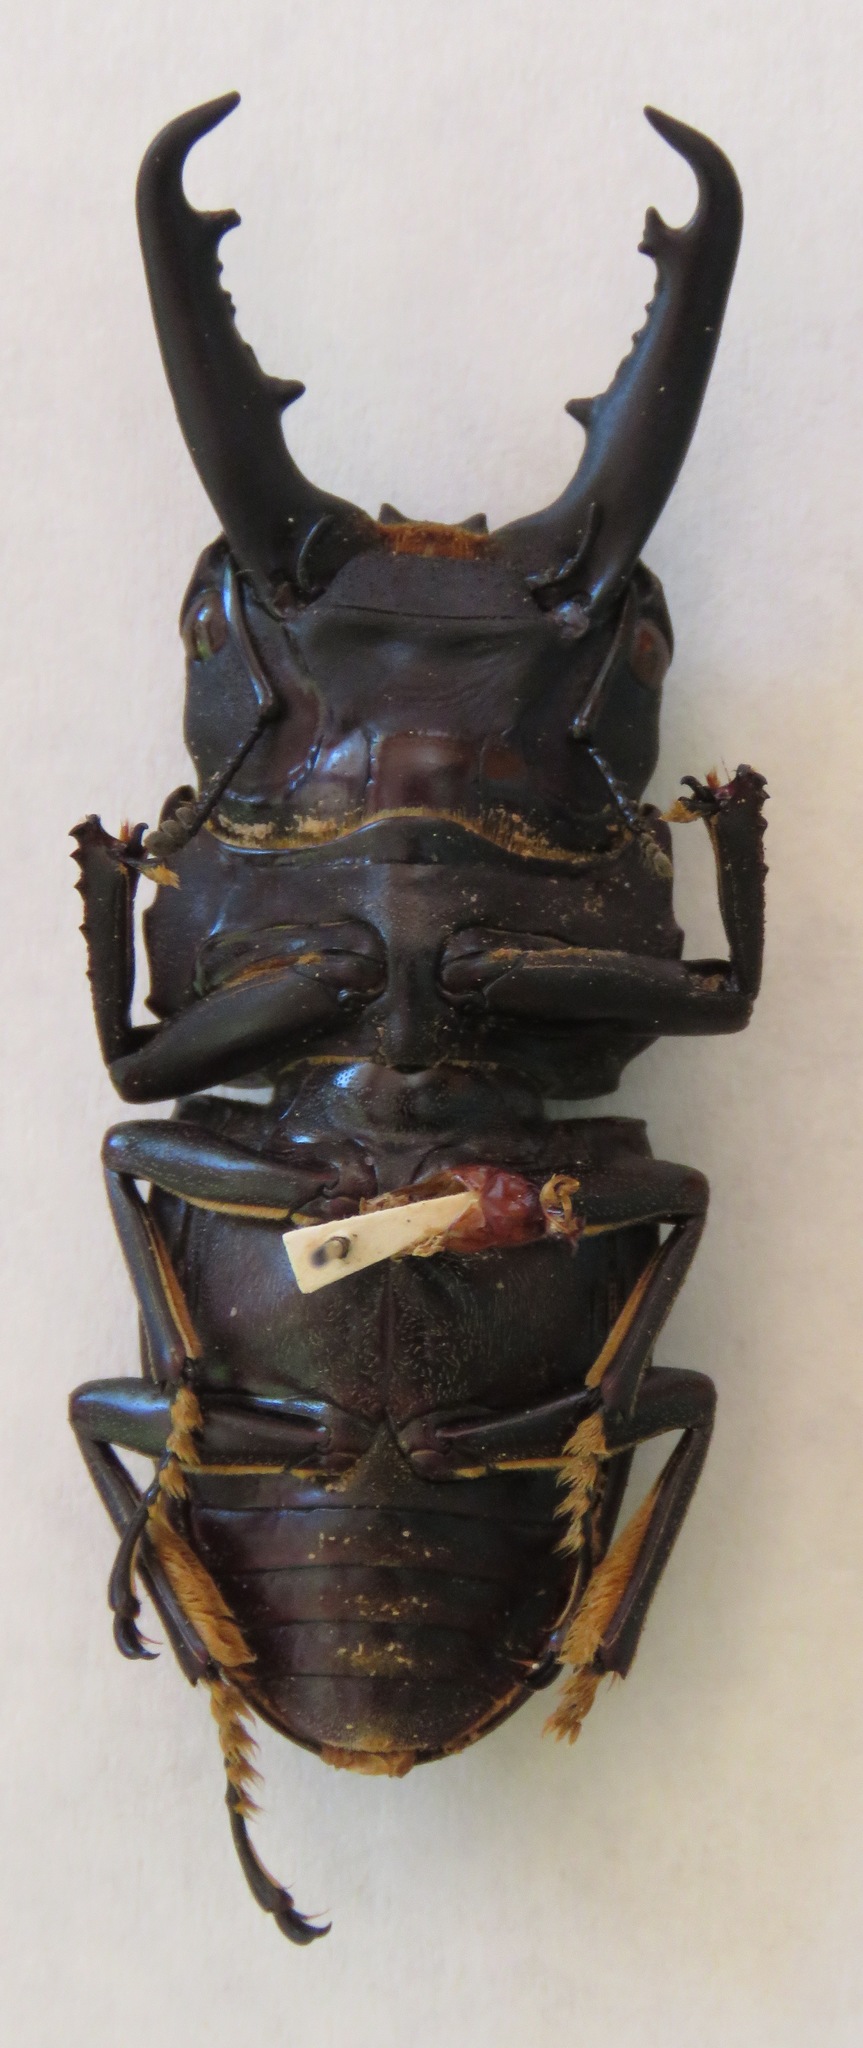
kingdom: Animalia
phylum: Arthropoda
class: Insecta
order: Coleoptera
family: Lucanidae
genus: Dorcus
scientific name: Dorcus townesi
